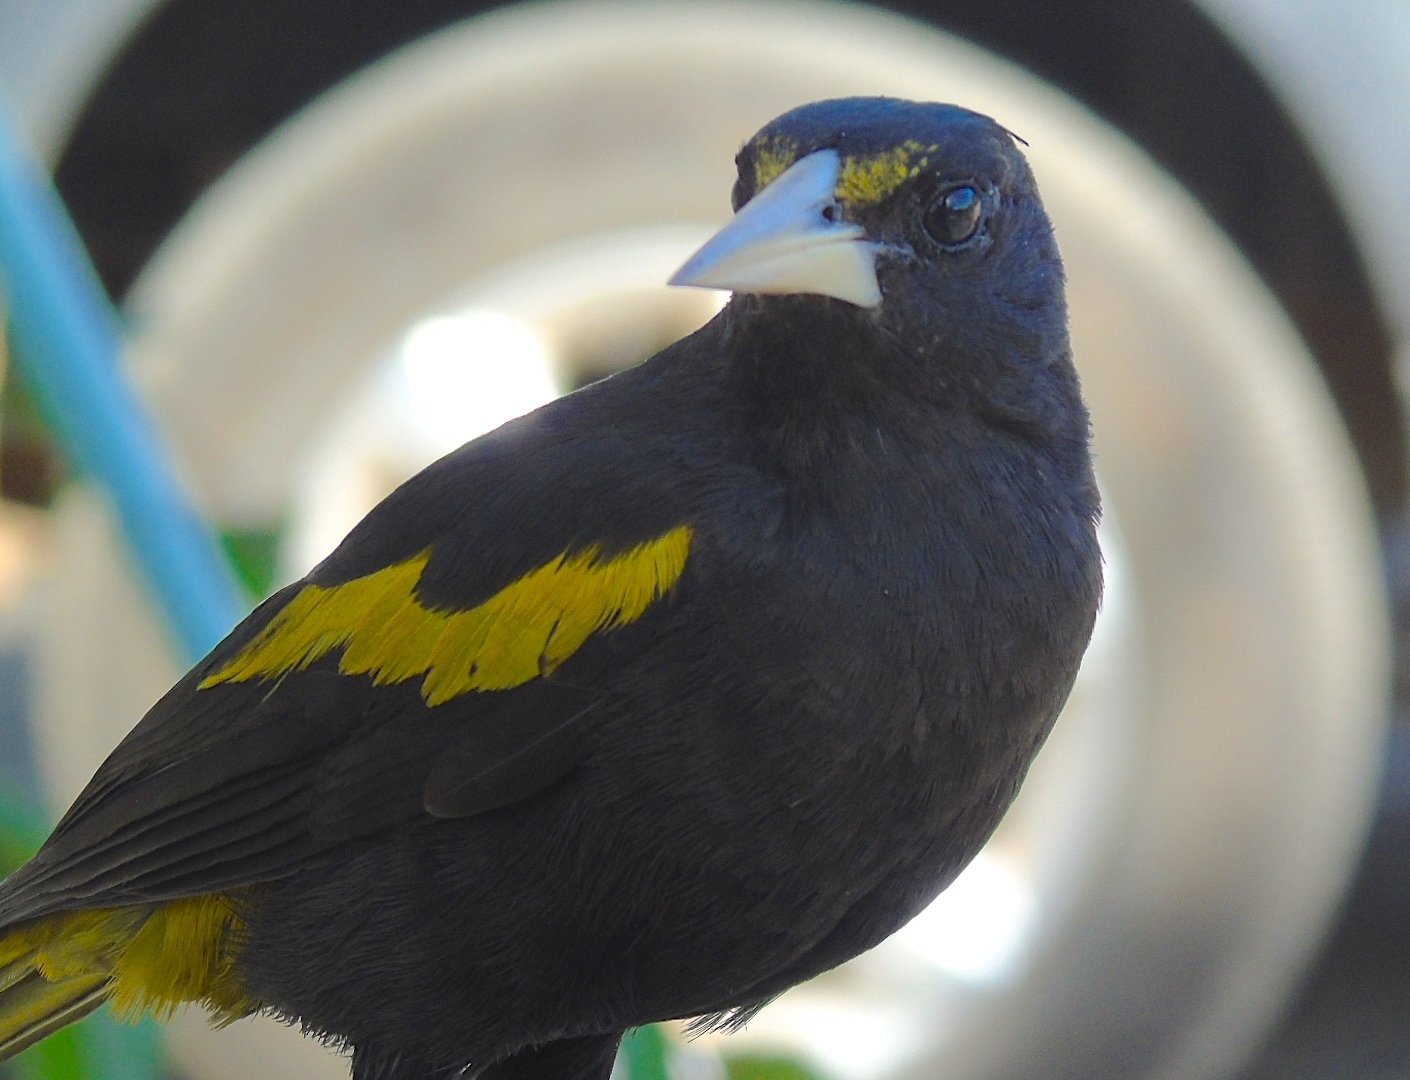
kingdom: Animalia
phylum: Chordata
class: Aves
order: Passeriformes
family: Icteridae
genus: Cacicus
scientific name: Cacicus melanicterus
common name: Yellow-winged cacique
